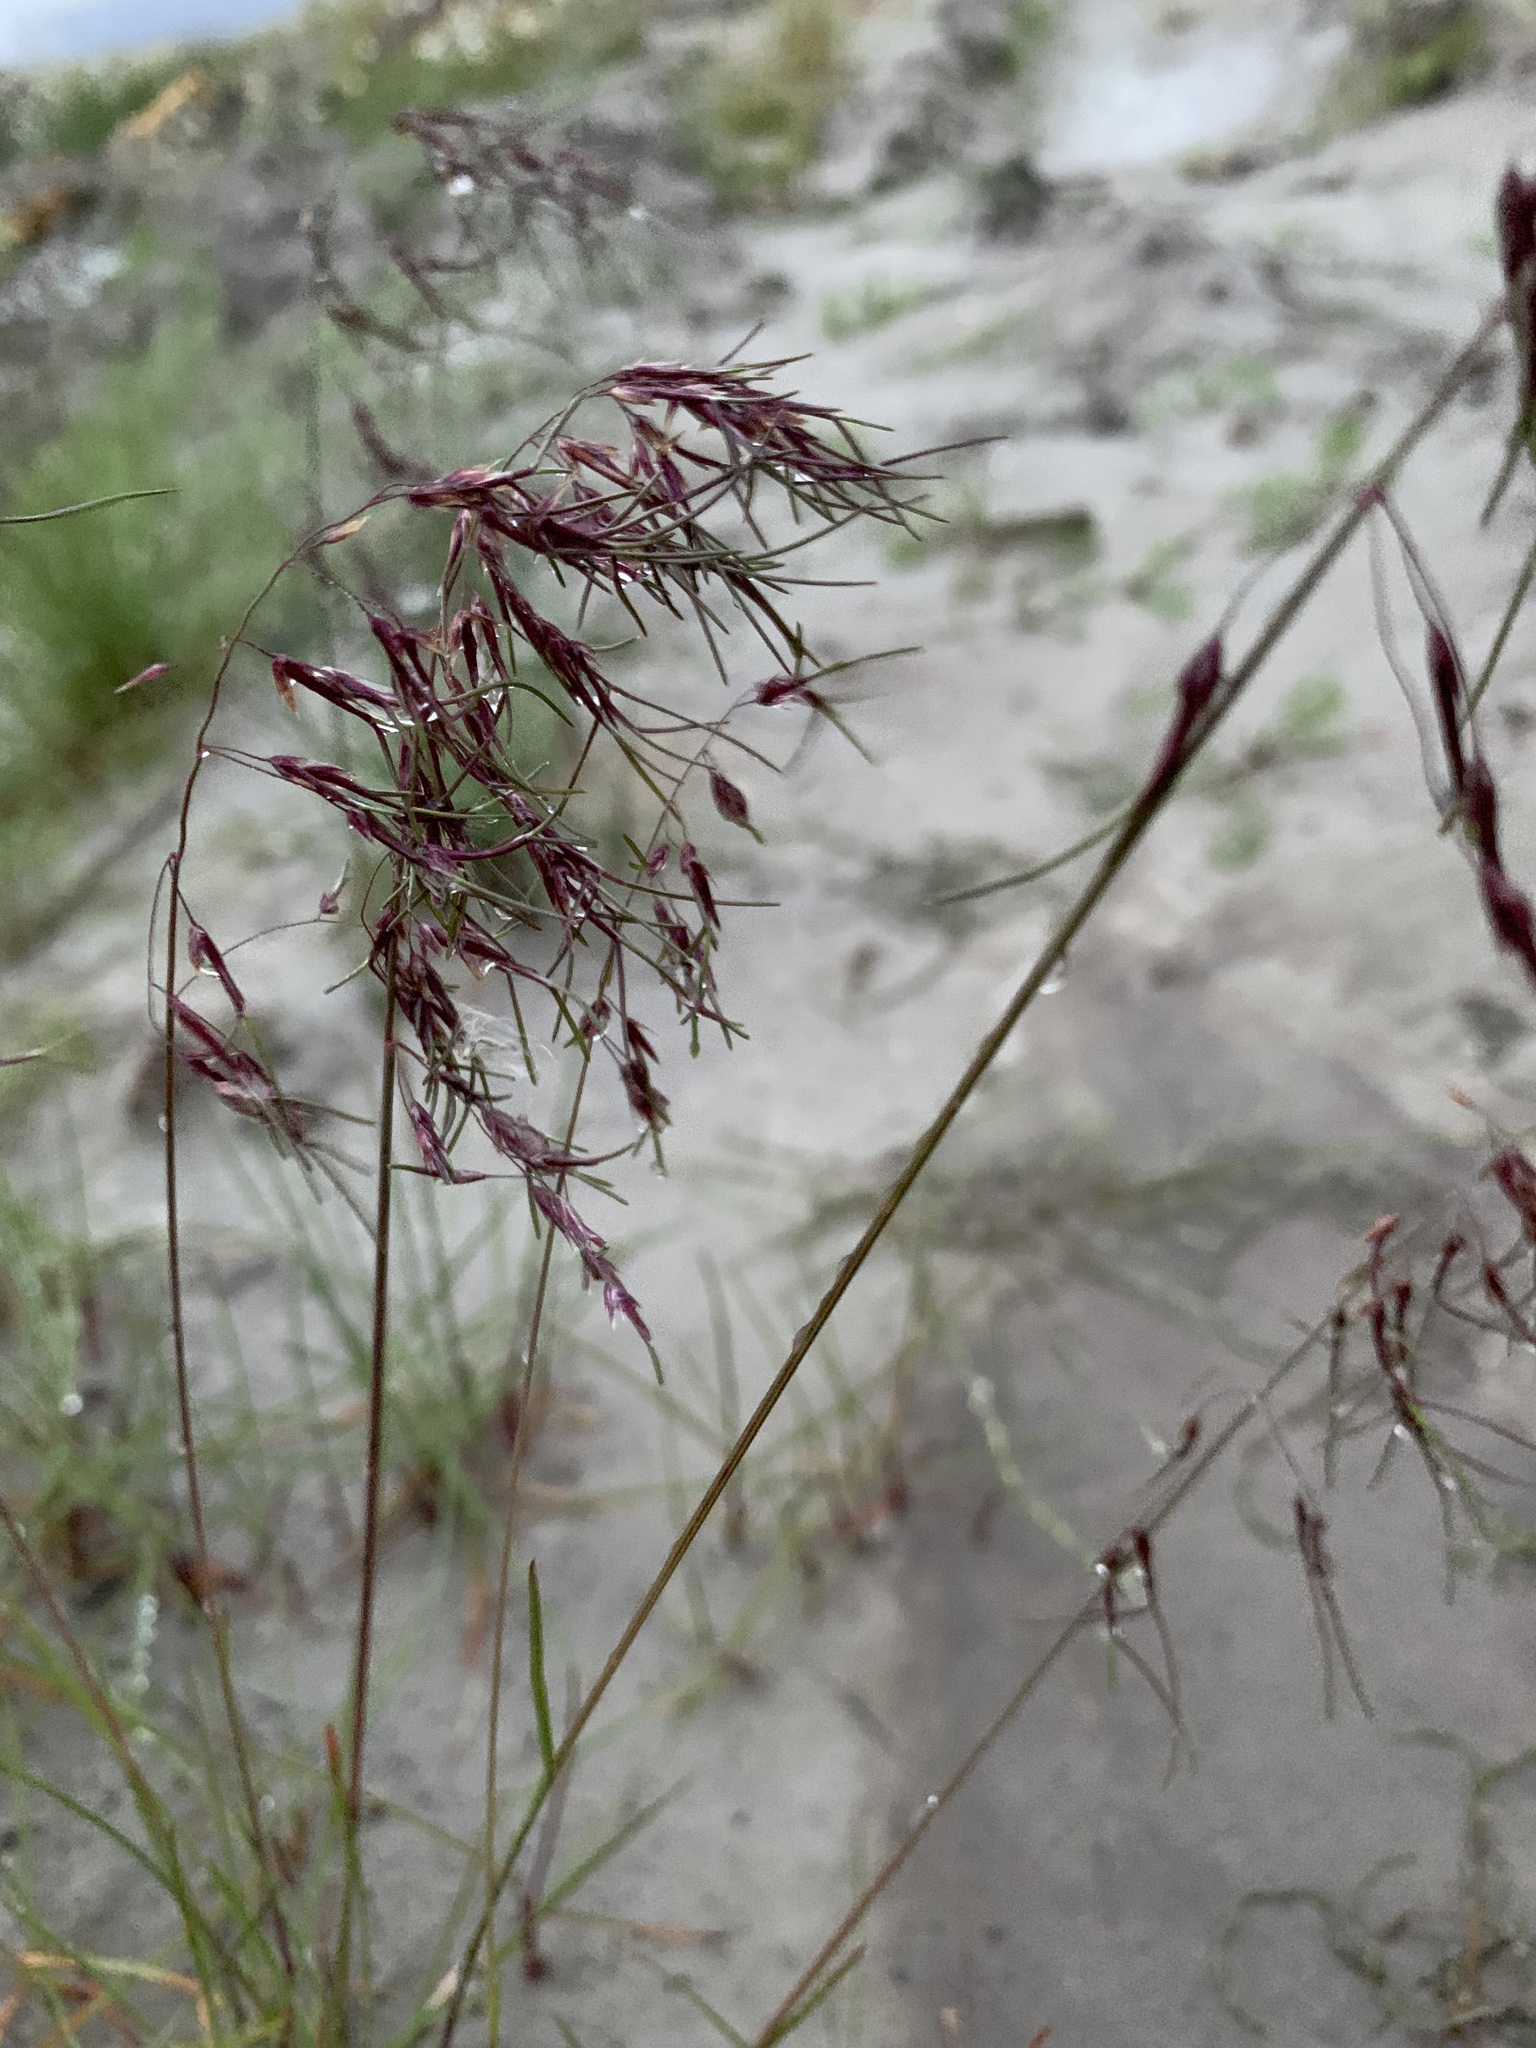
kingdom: Plantae
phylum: Tracheophyta
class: Liliopsida
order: Poales
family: Poaceae
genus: Poa
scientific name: Poa alpigena
